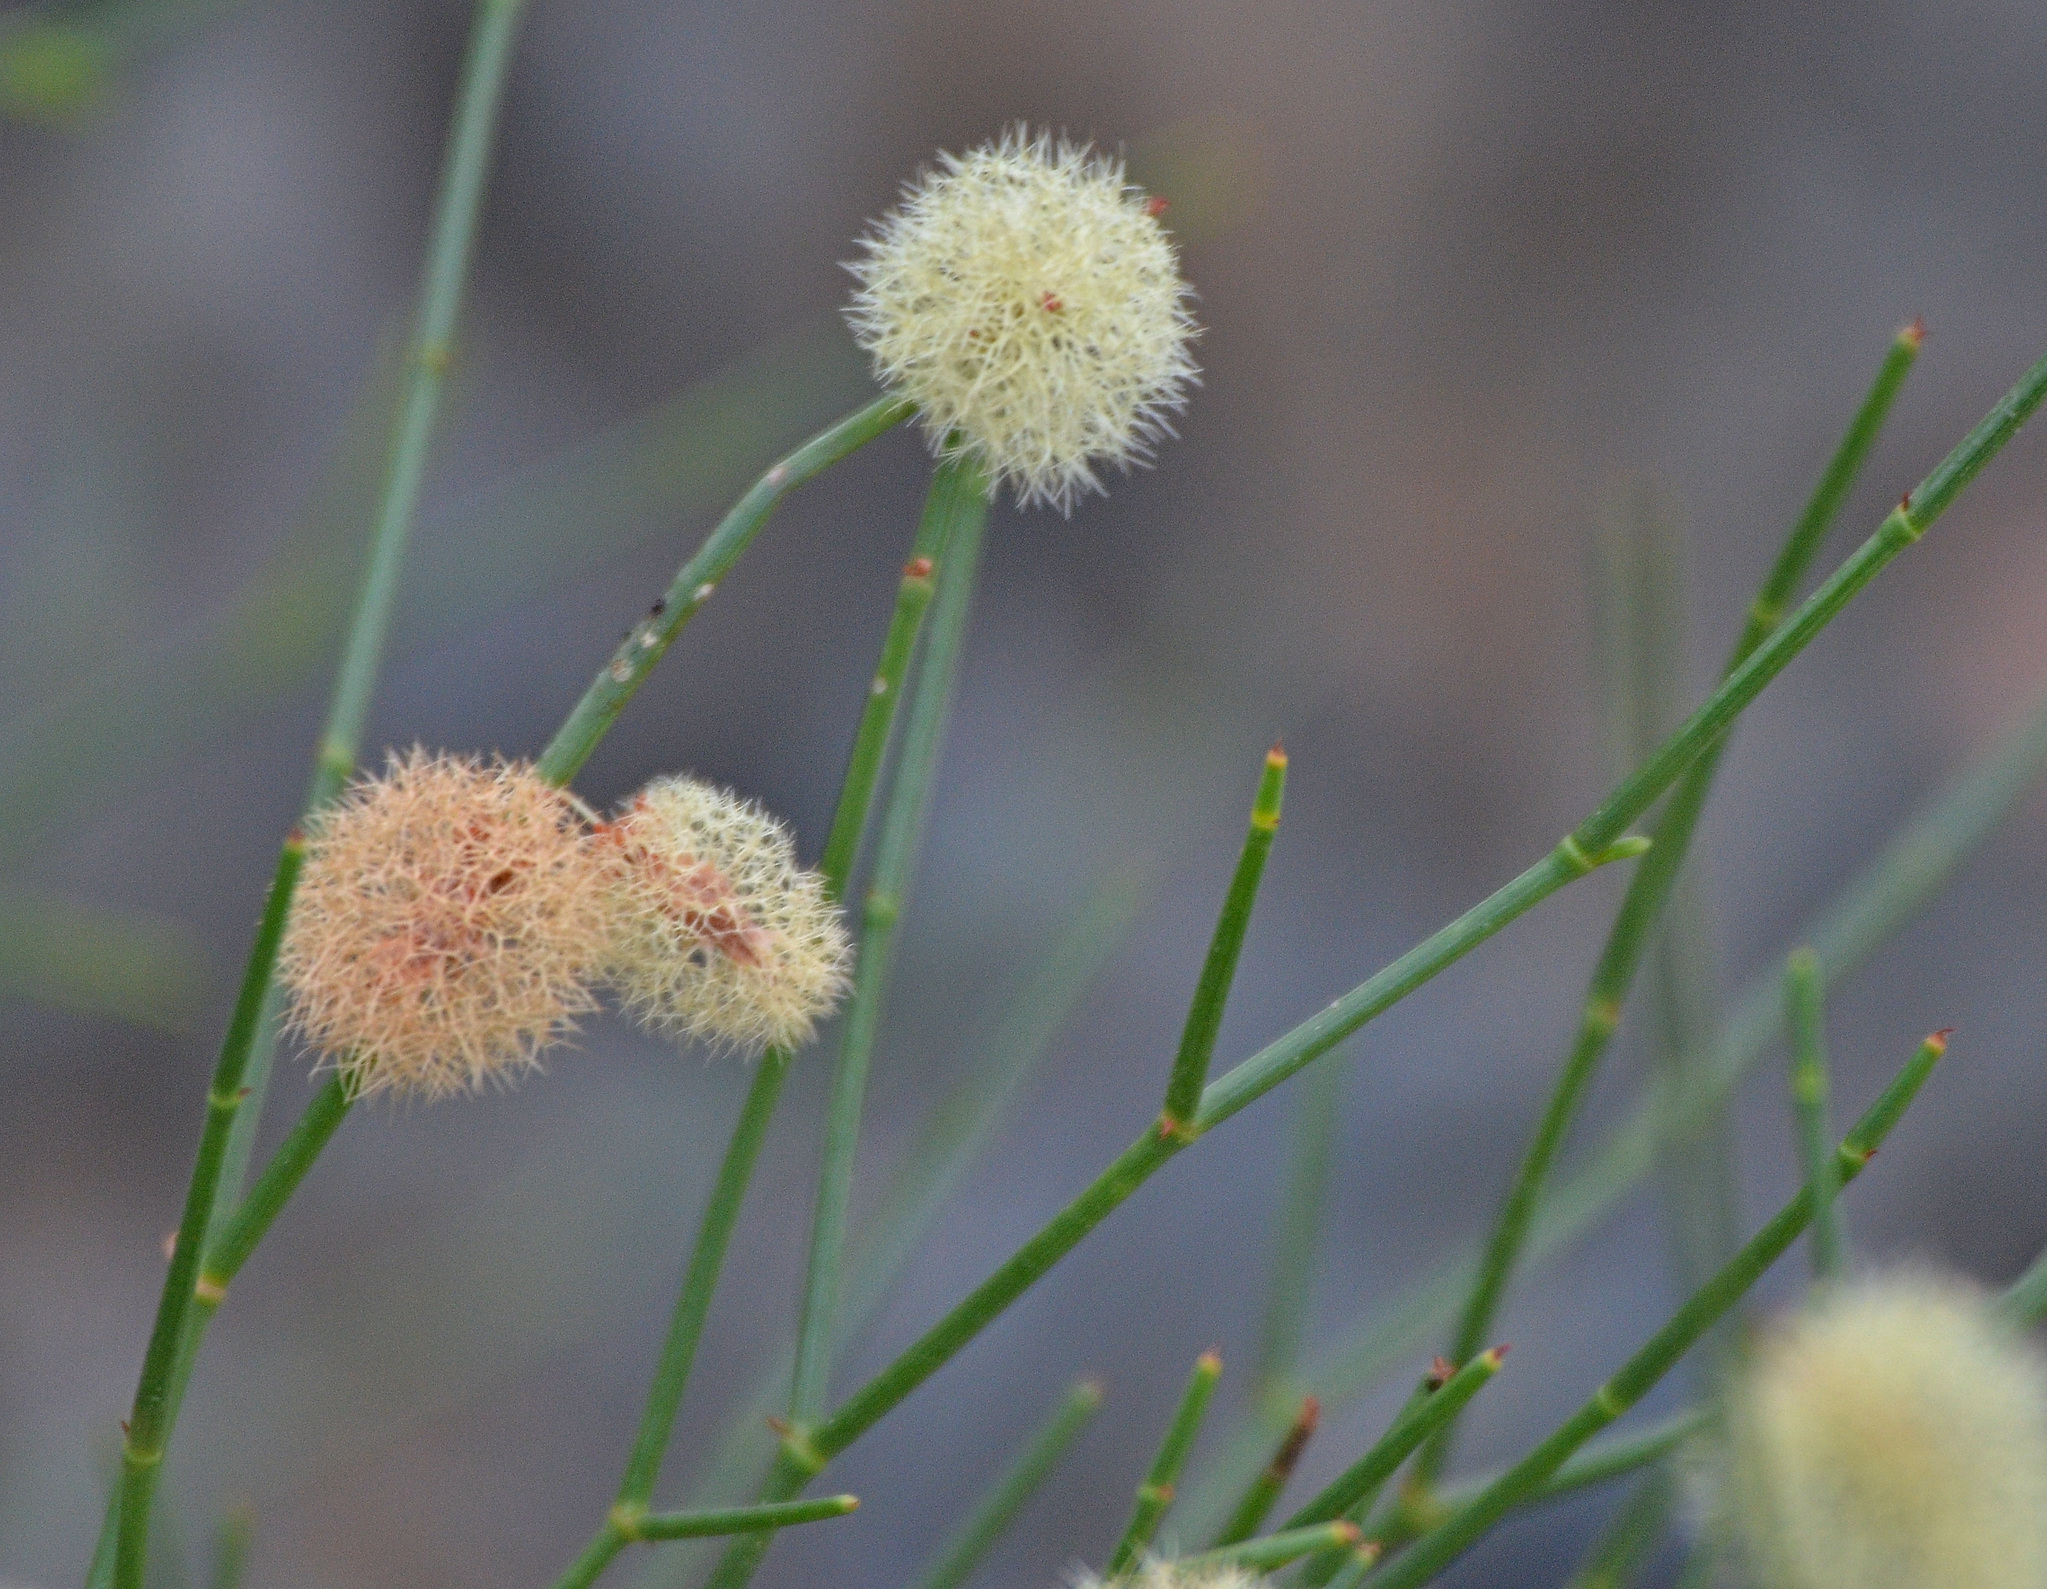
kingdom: Plantae
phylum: Tracheophyta
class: Magnoliopsida
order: Caryophyllales
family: Polygonaceae
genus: Calligonum
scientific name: Calligonum mongolicum
